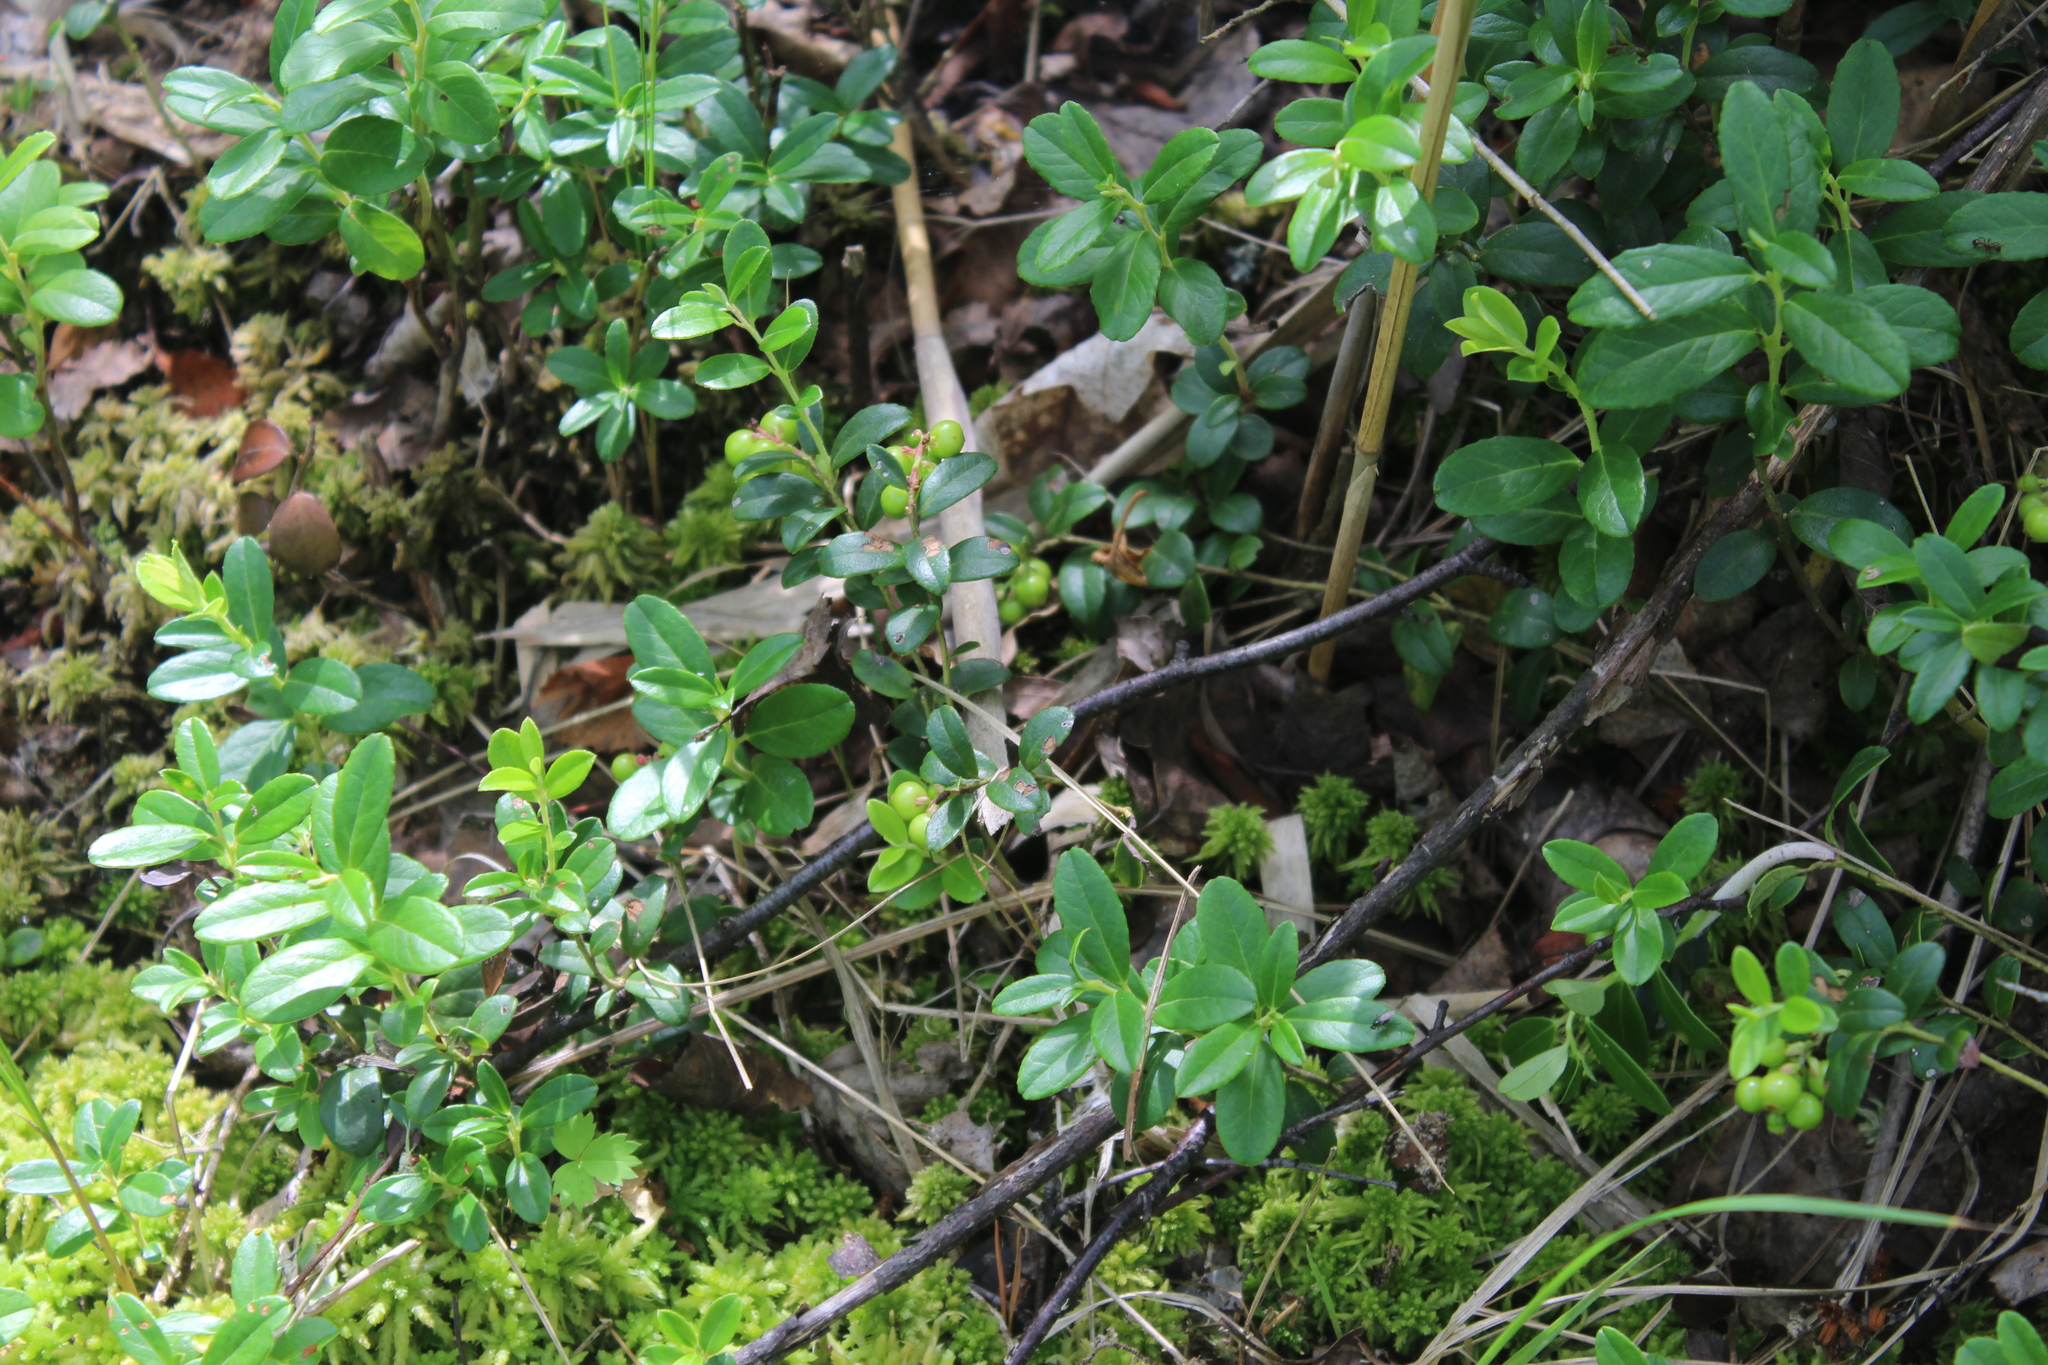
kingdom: Plantae
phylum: Tracheophyta
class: Magnoliopsida
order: Ericales
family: Ericaceae
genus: Vaccinium
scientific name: Vaccinium vitis-idaea
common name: Cowberry
